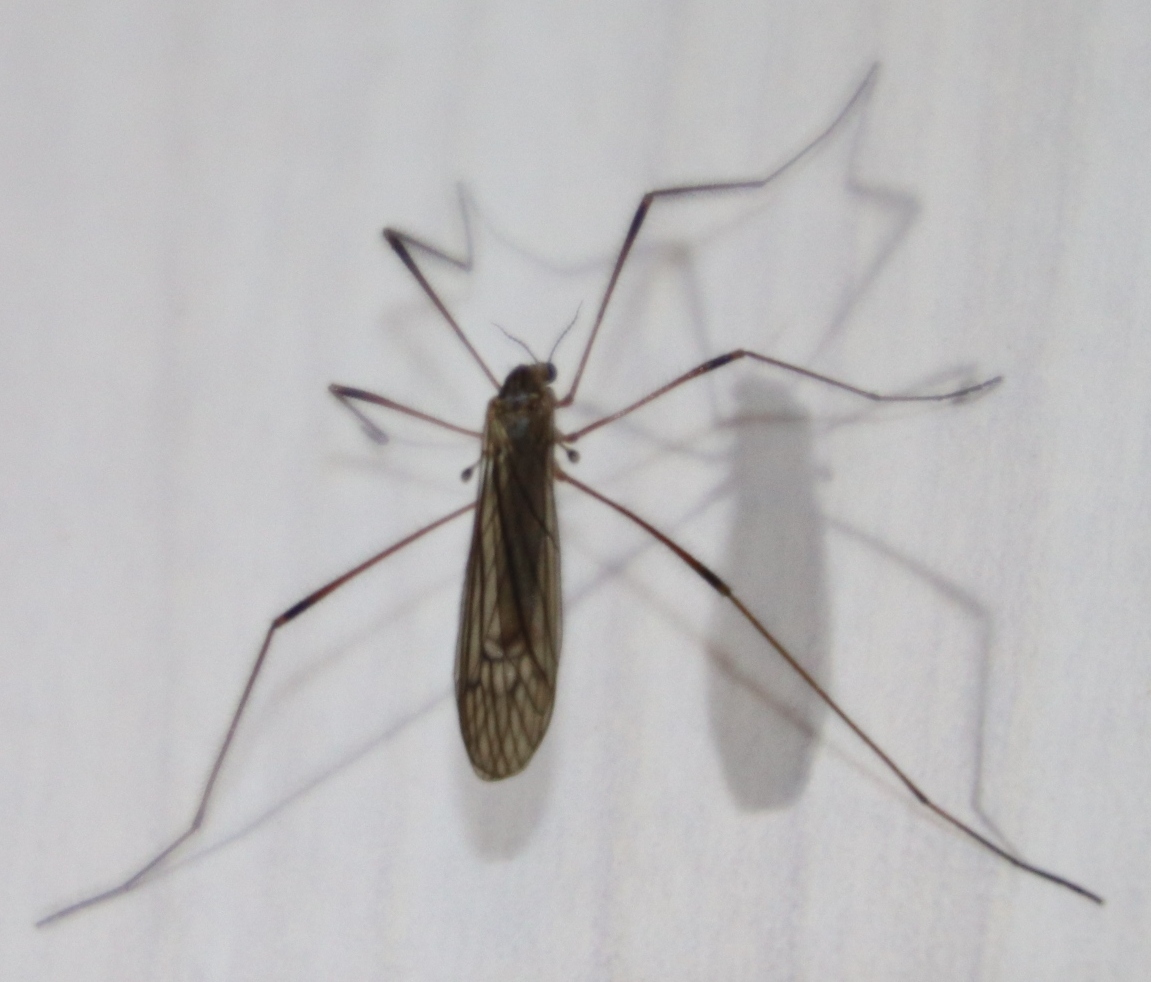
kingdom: Animalia
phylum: Arthropoda
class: Insecta
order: Diptera
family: Limoniidae
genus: Symplecta
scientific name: Symplecta pilipes
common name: Crane fly
